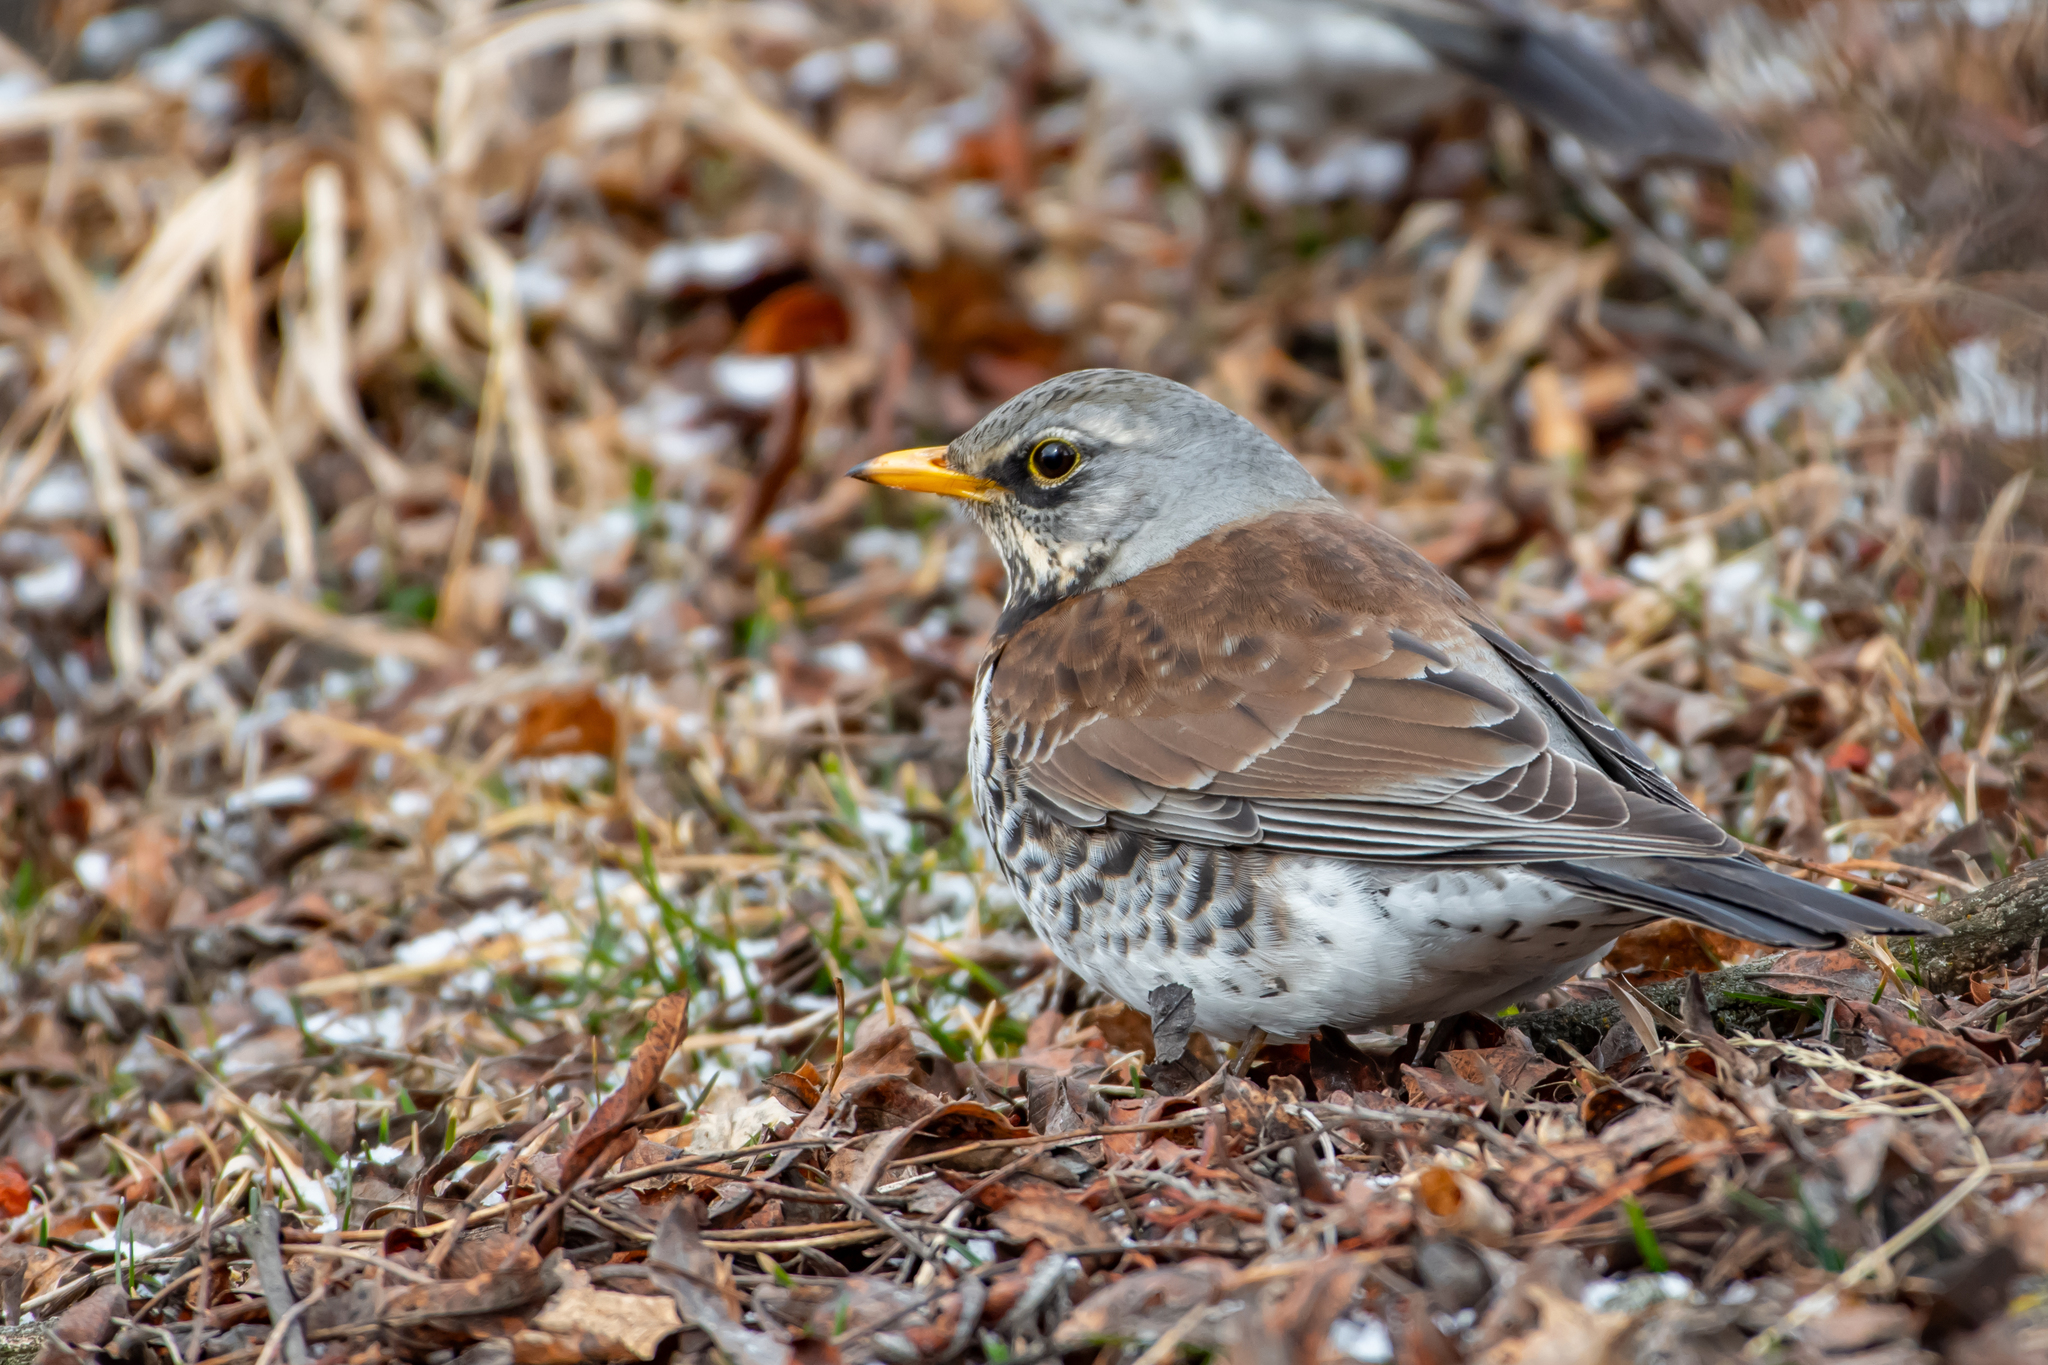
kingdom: Animalia
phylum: Chordata
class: Aves
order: Passeriformes
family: Turdidae
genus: Turdus
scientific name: Turdus pilaris
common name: Fieldfare
